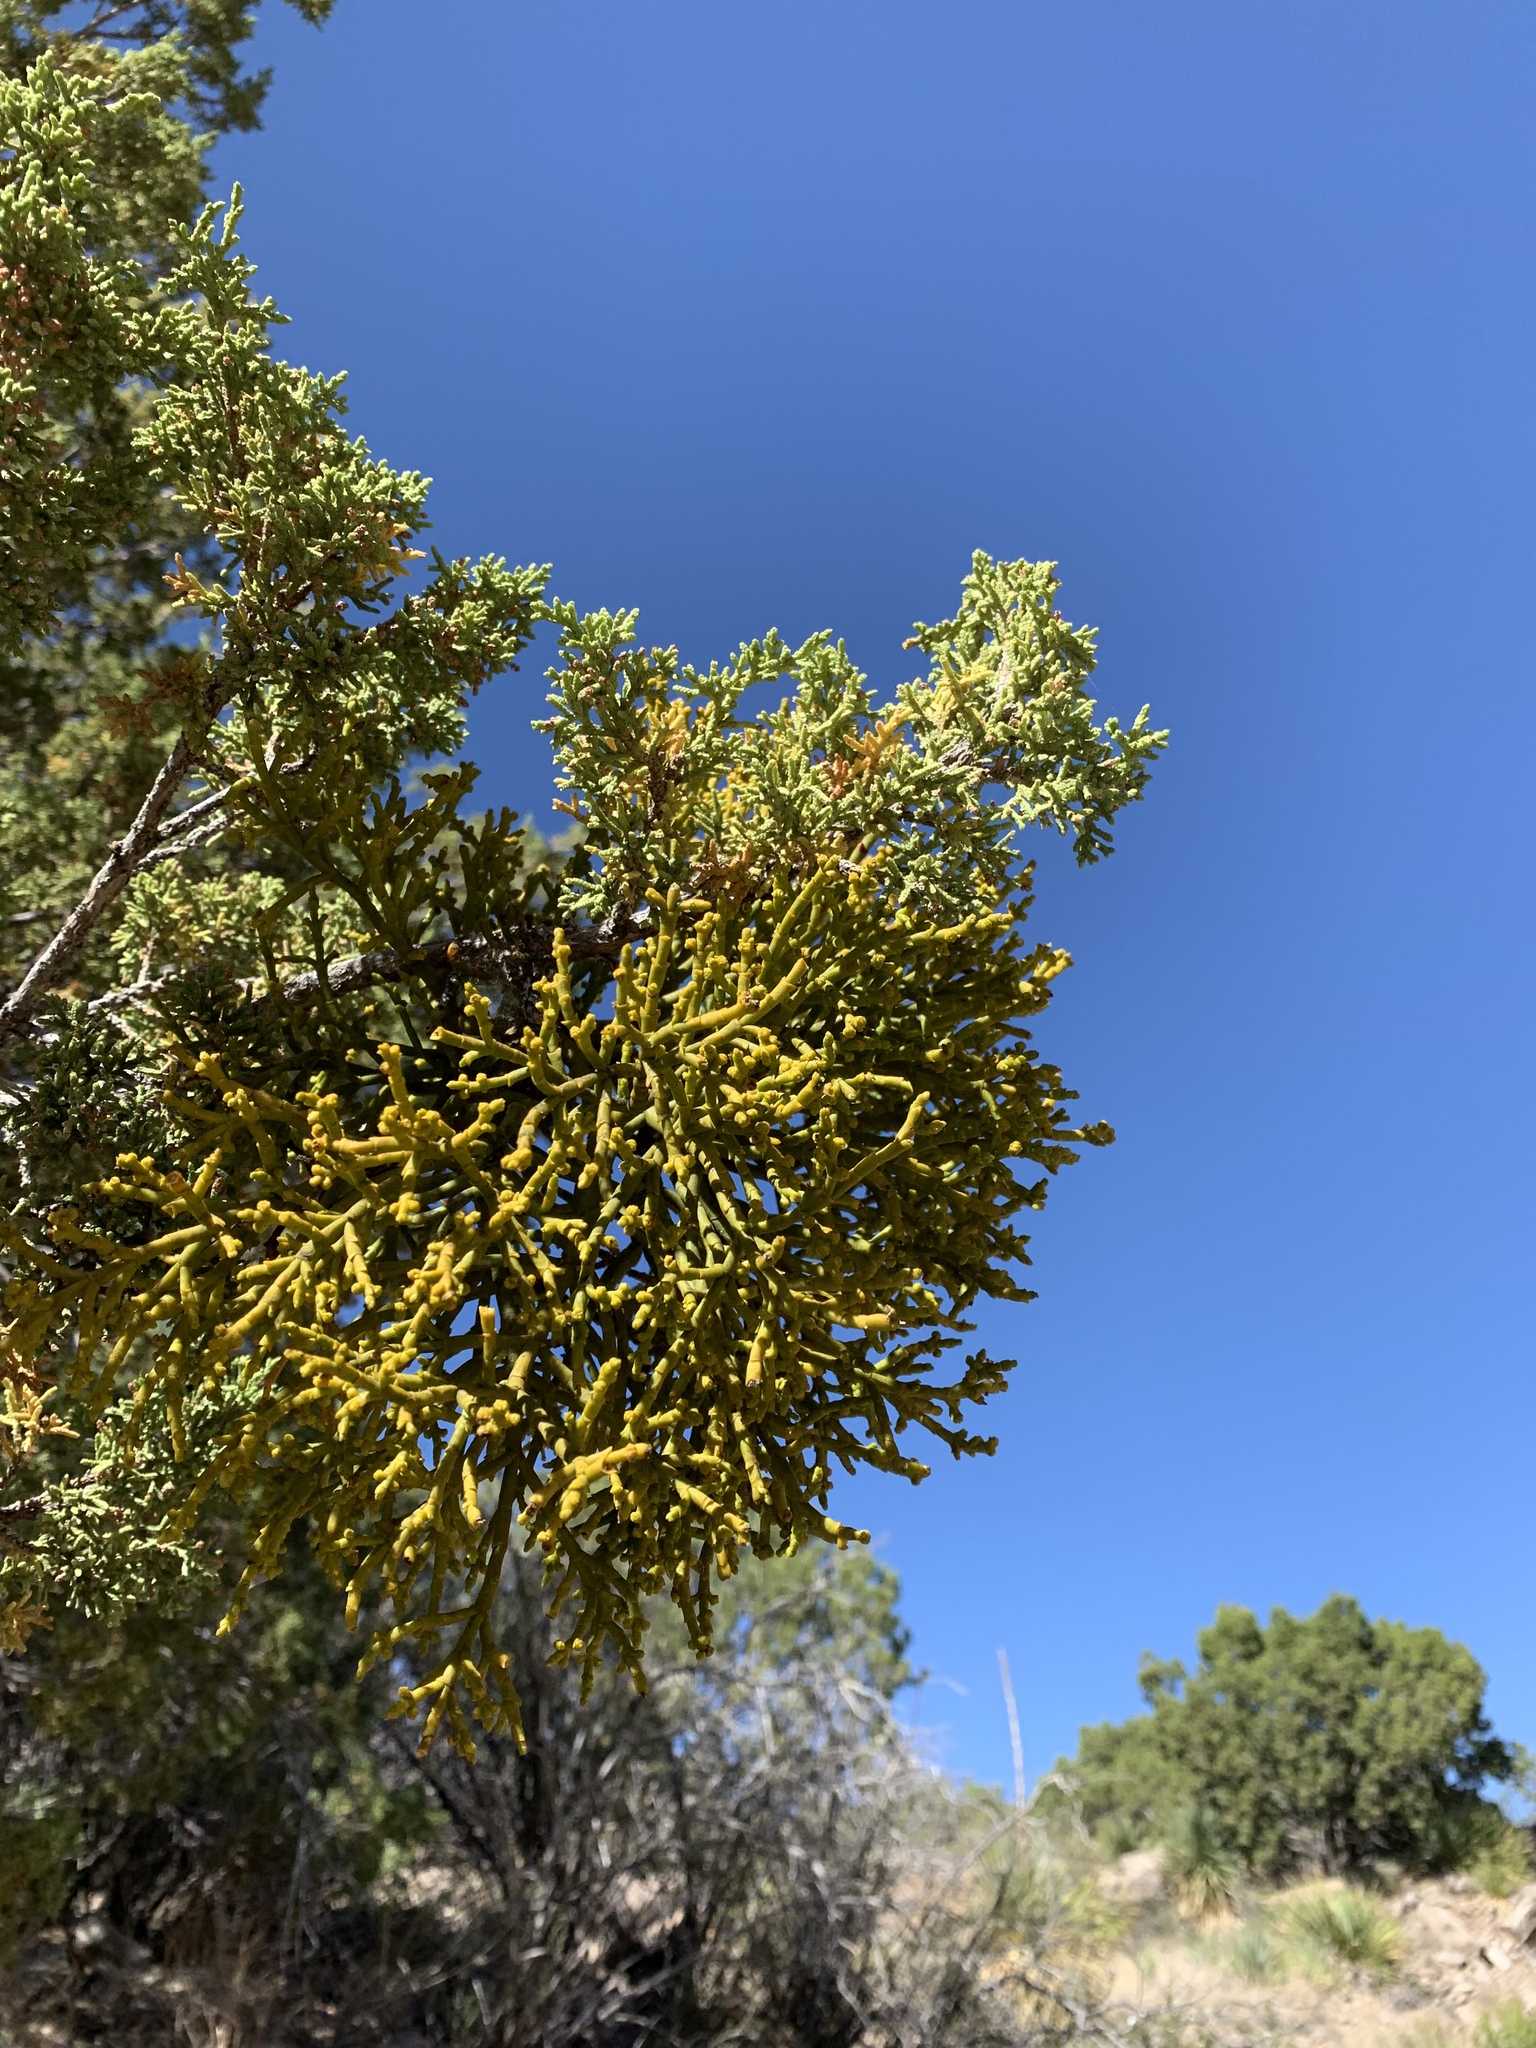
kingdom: Plantae
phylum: Tracheophyta
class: Magnoliopsida
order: Santalales
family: Viscaceae
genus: Phoradendron
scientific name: Phoradendron juniperinum
